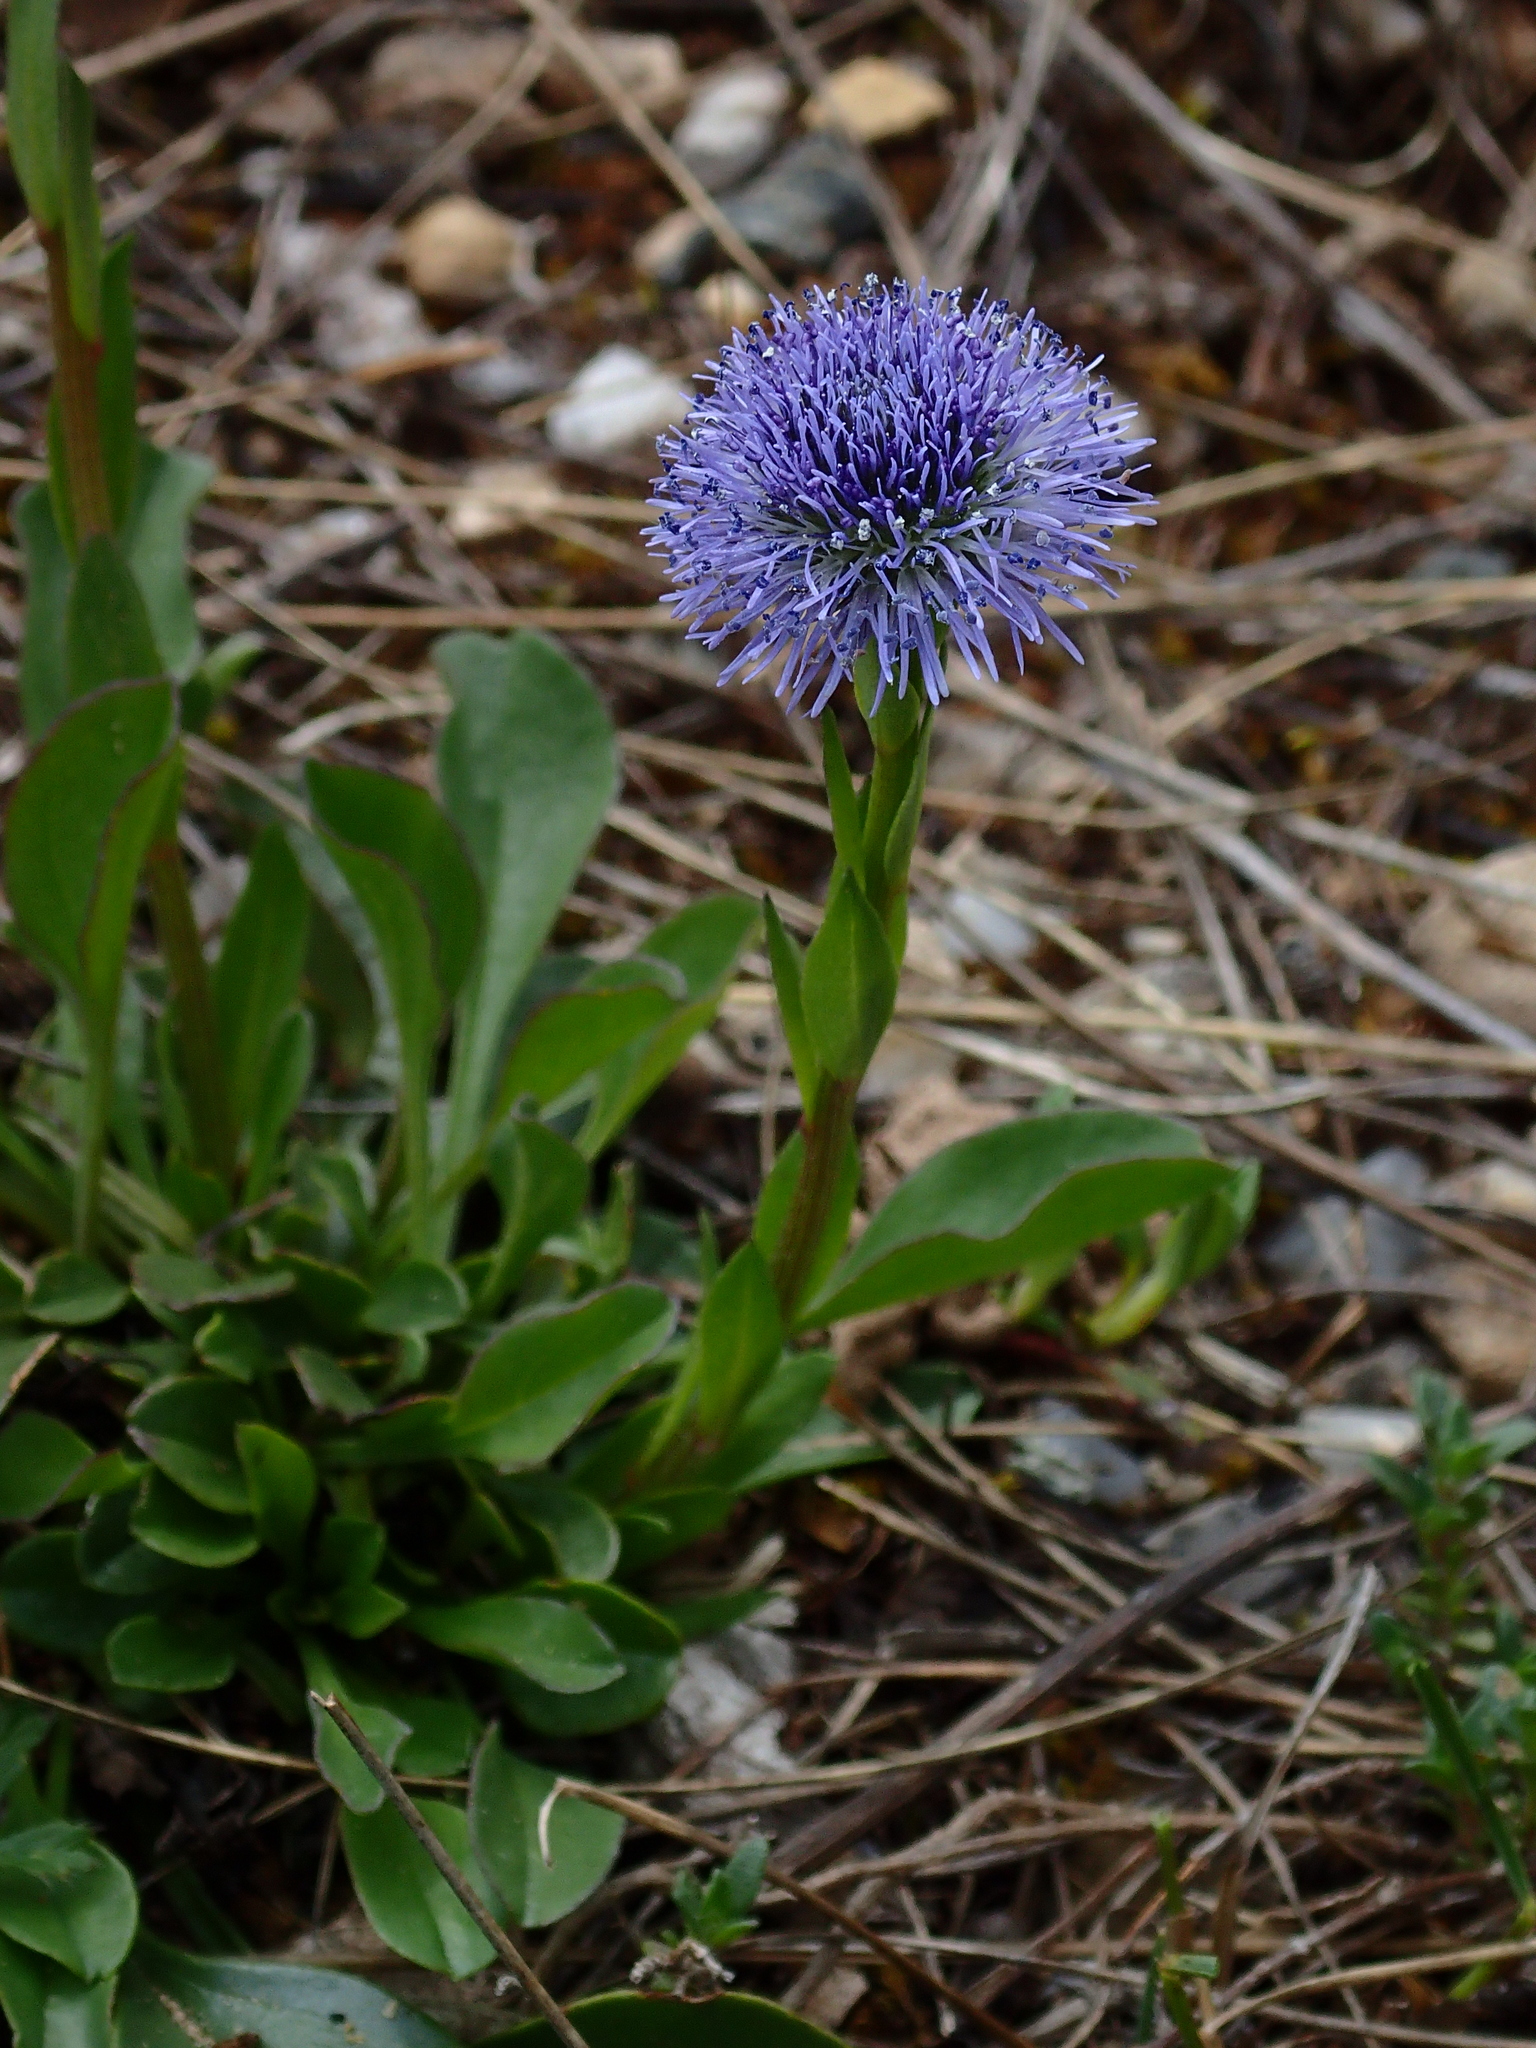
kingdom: Plantae
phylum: Tracheophyta
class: Magnoliopsida
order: Lamiales
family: Plantaginaceae
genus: Globularia
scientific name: Globularia vulgaris
